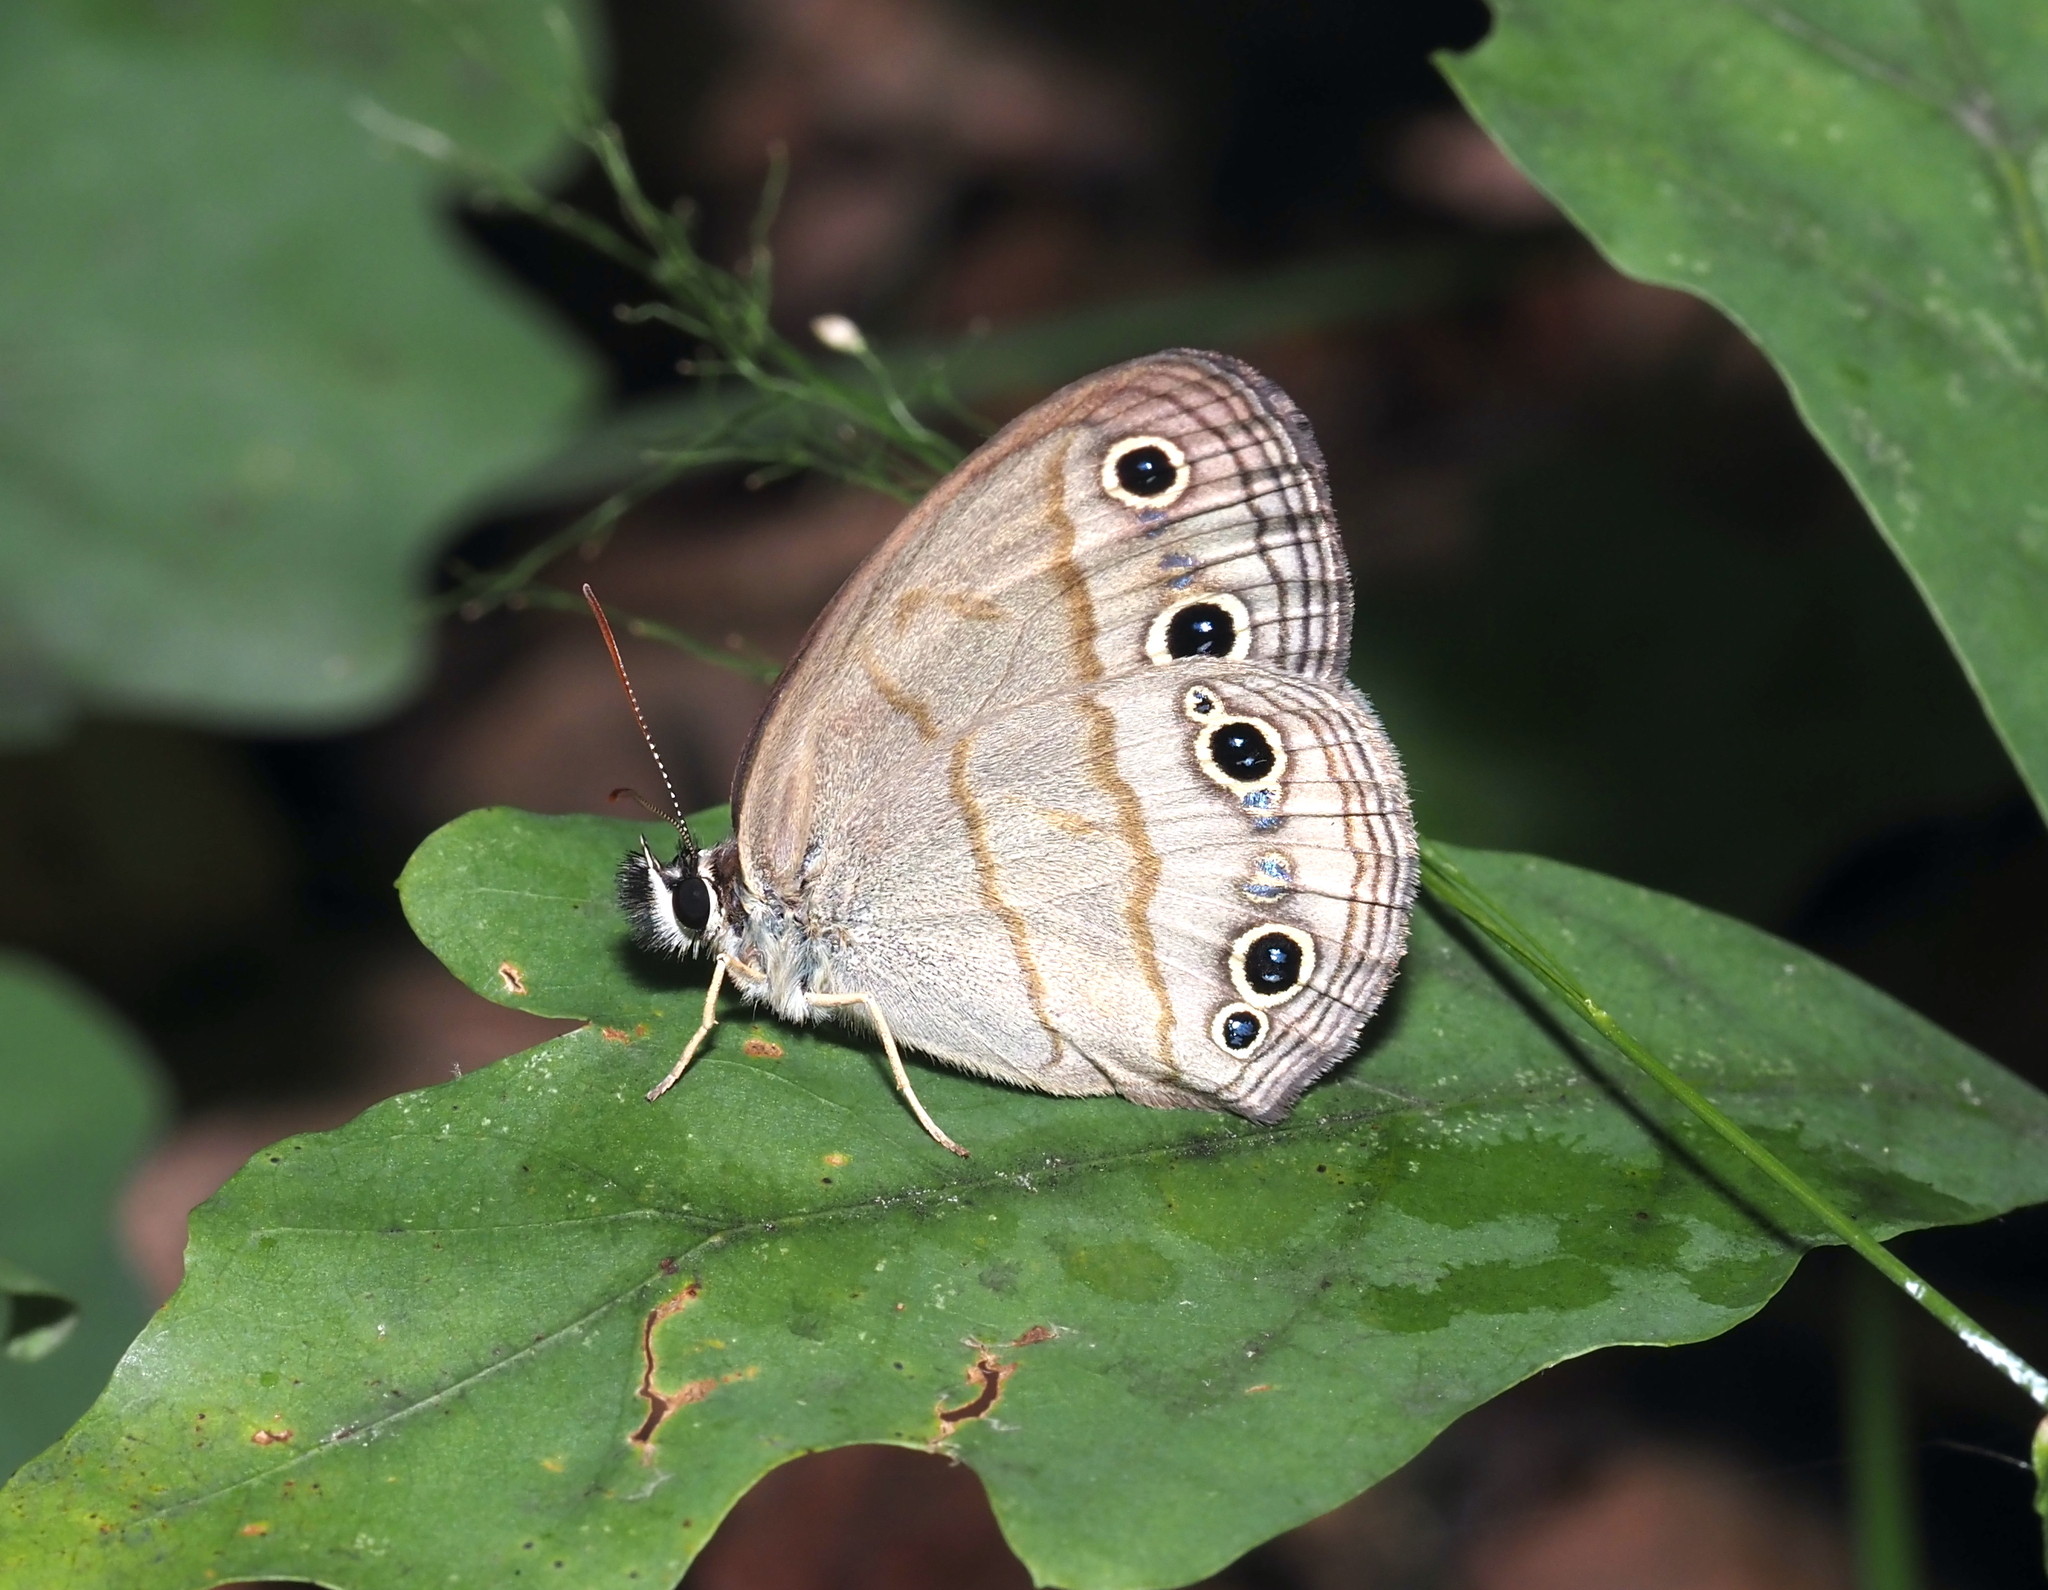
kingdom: Animalia
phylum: Arthropoda
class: Insecta
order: Lepidoptera
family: Nymphalidae
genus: Euptychia
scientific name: Euptychia cymela
